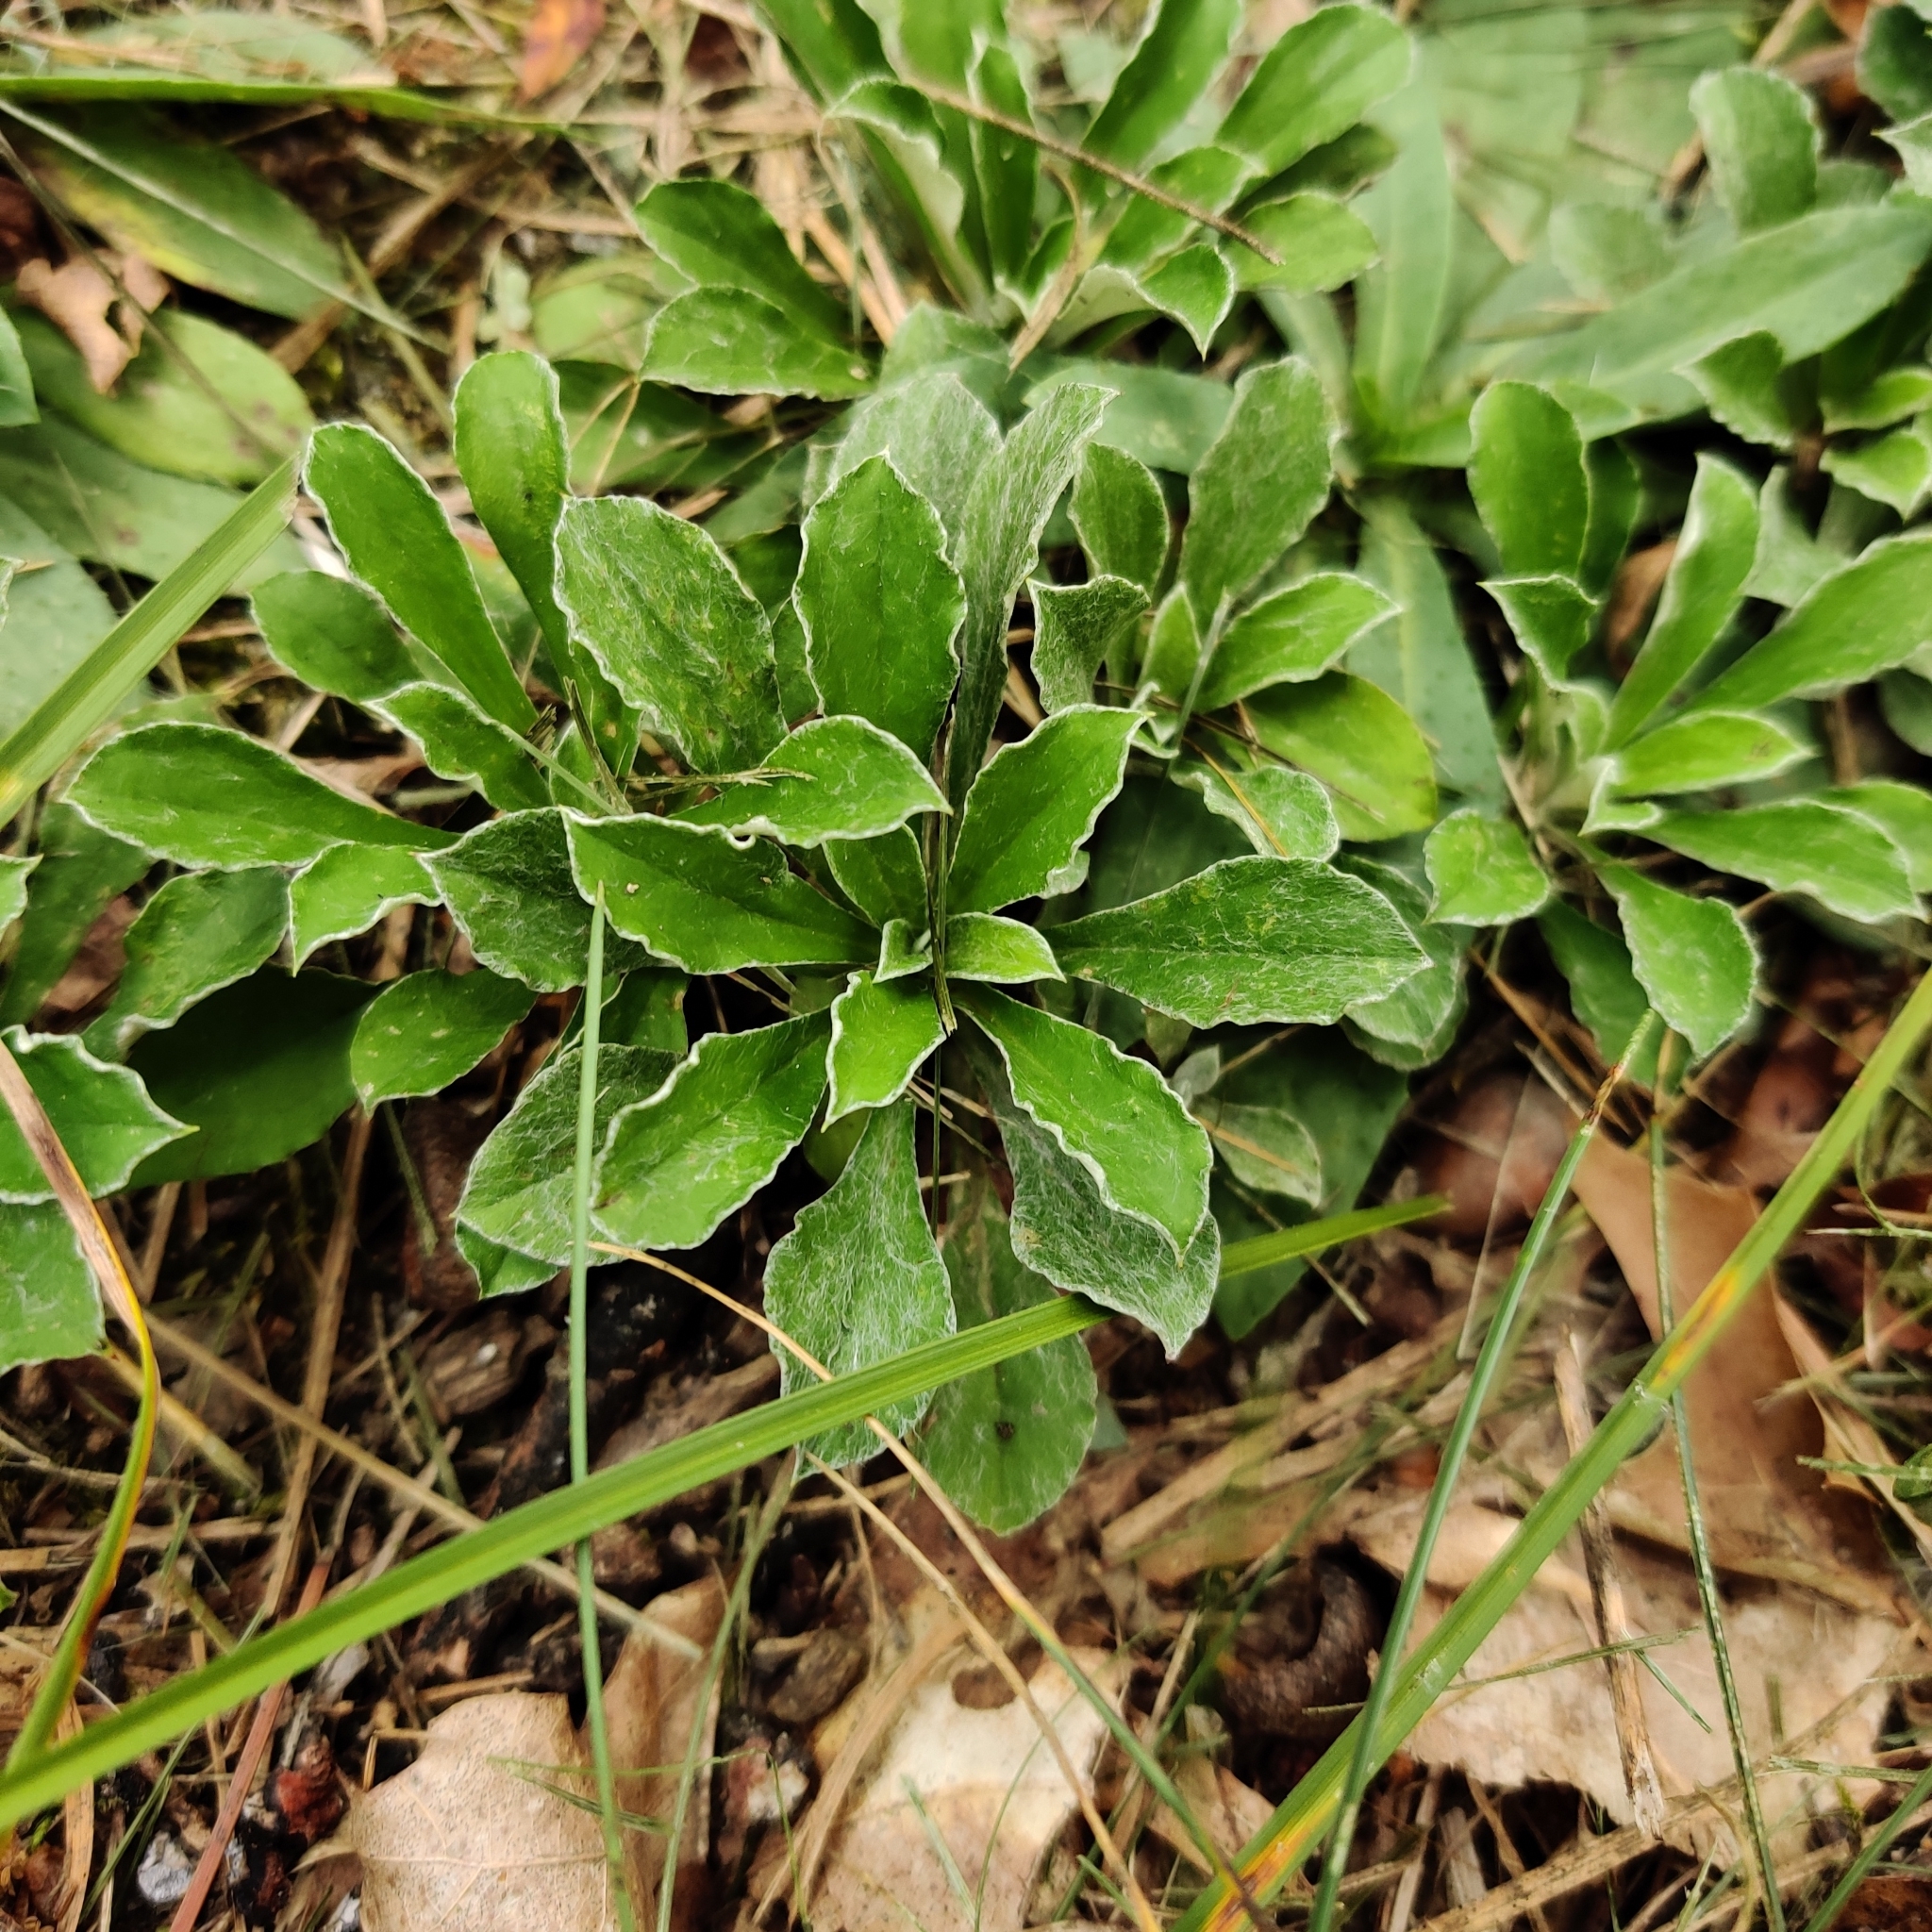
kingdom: Plantae
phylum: Tracheophyta
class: Magnoliopsida
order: Asterales
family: Asteraceae
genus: Antennaria
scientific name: Antennaria howellii
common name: Howell's pussytoes
